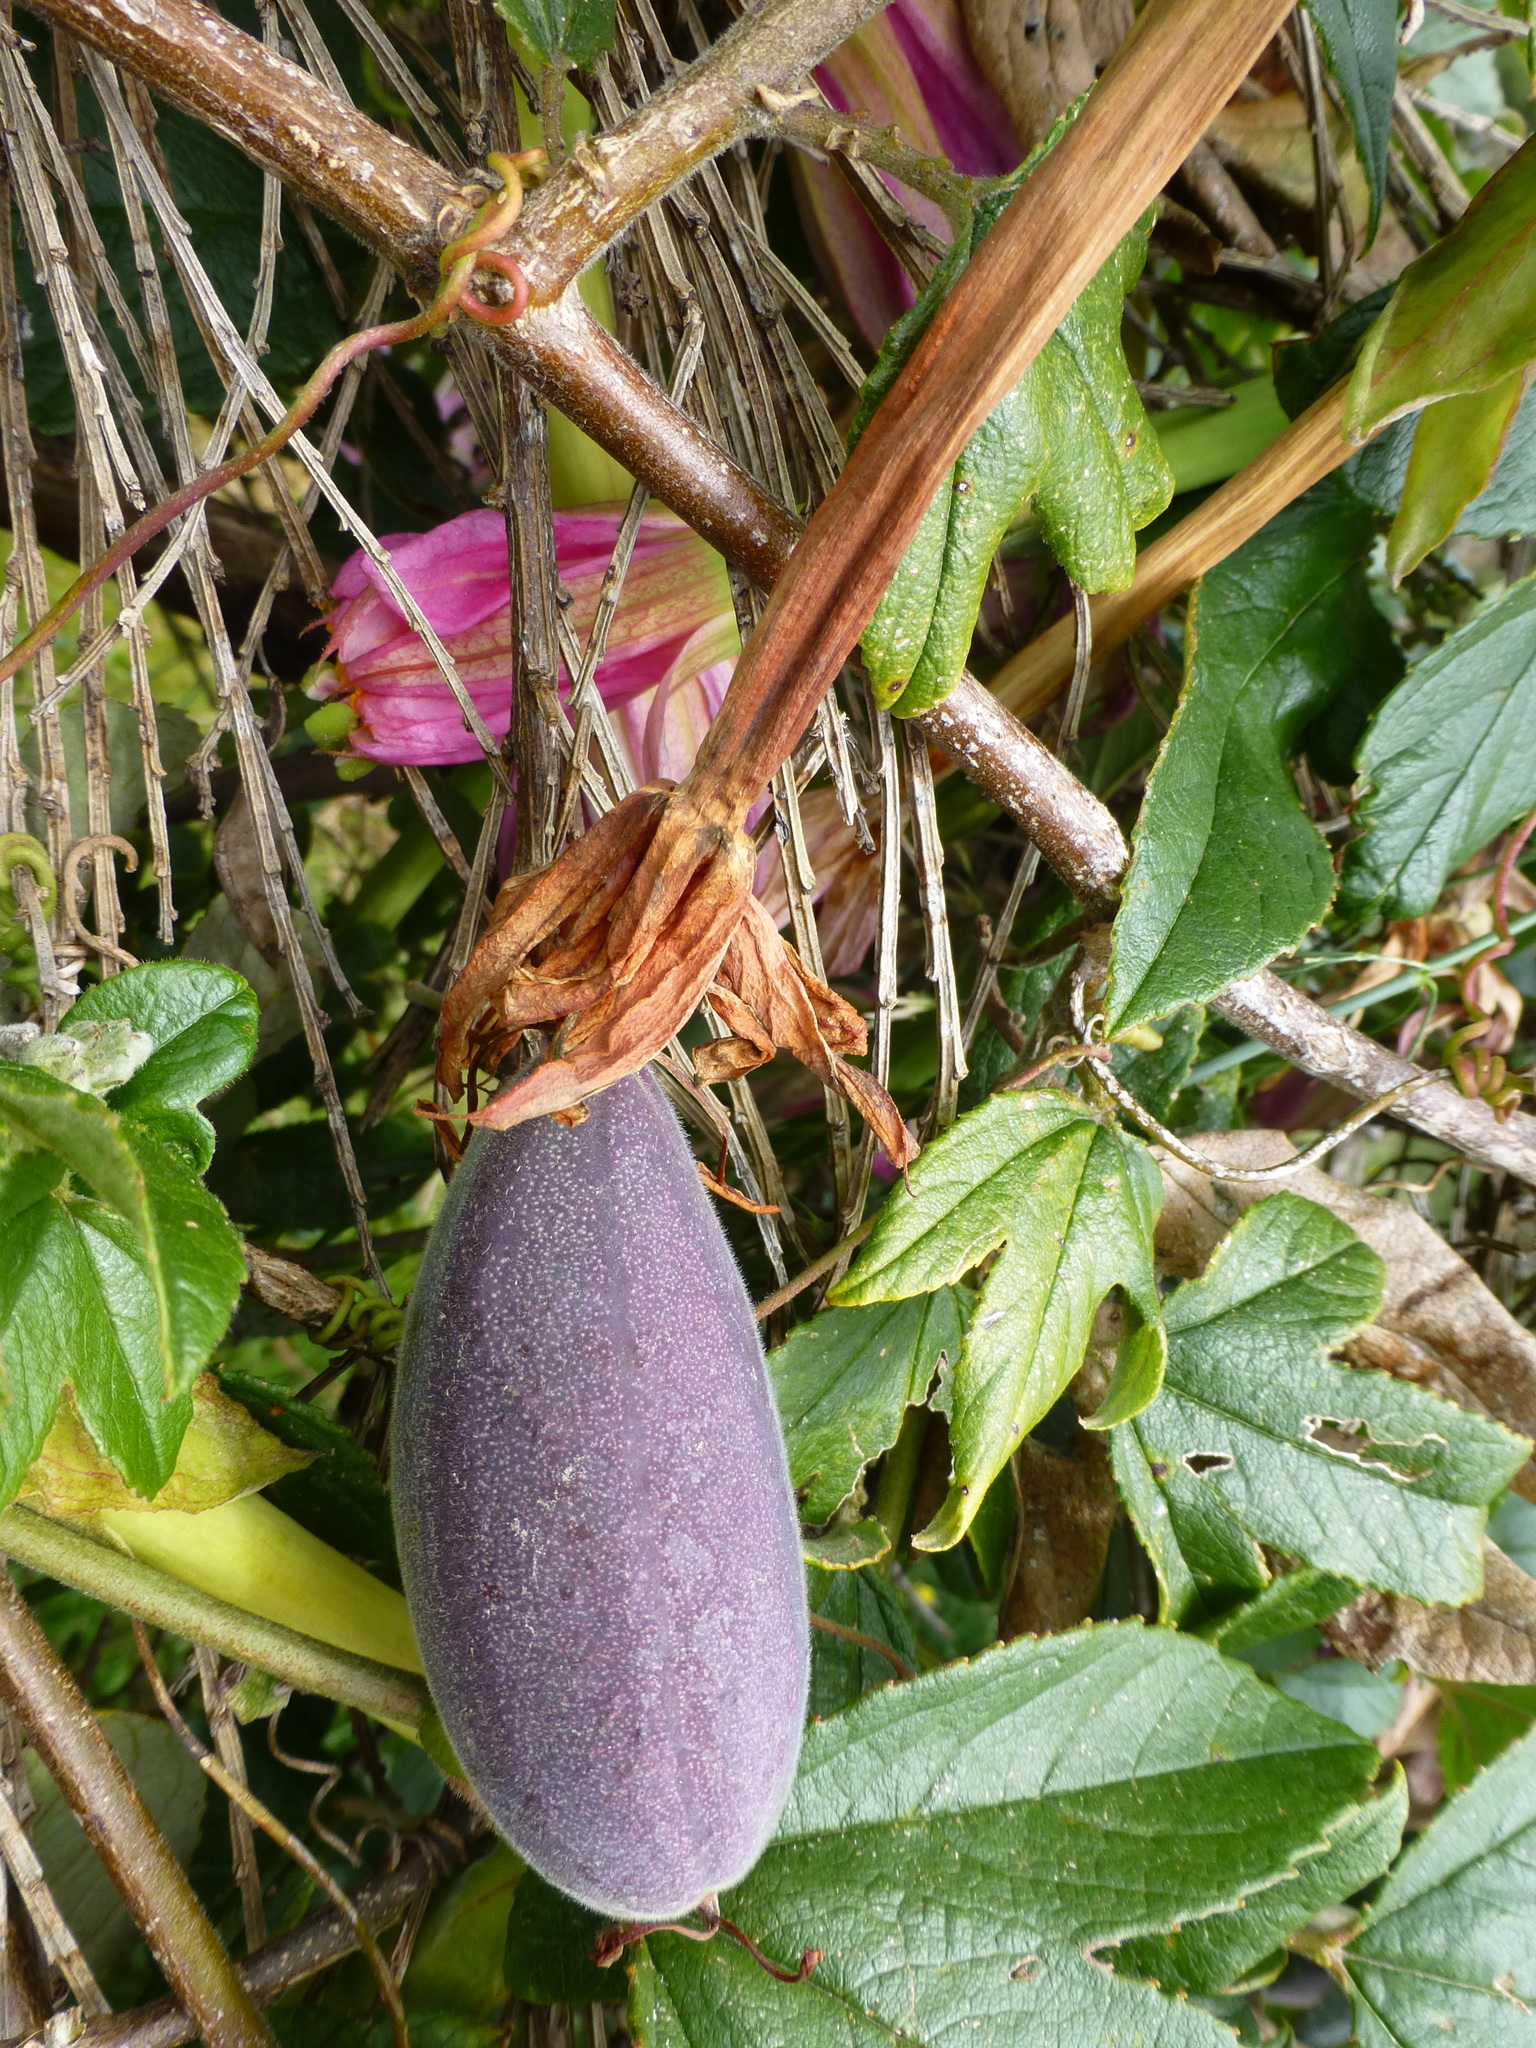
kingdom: Plantae
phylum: Tracheophyta
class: Magnoliopsida
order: Malpighiales
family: Passifloraceae
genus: Passiflora
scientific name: Passiflora tripartita
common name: Banana poka
